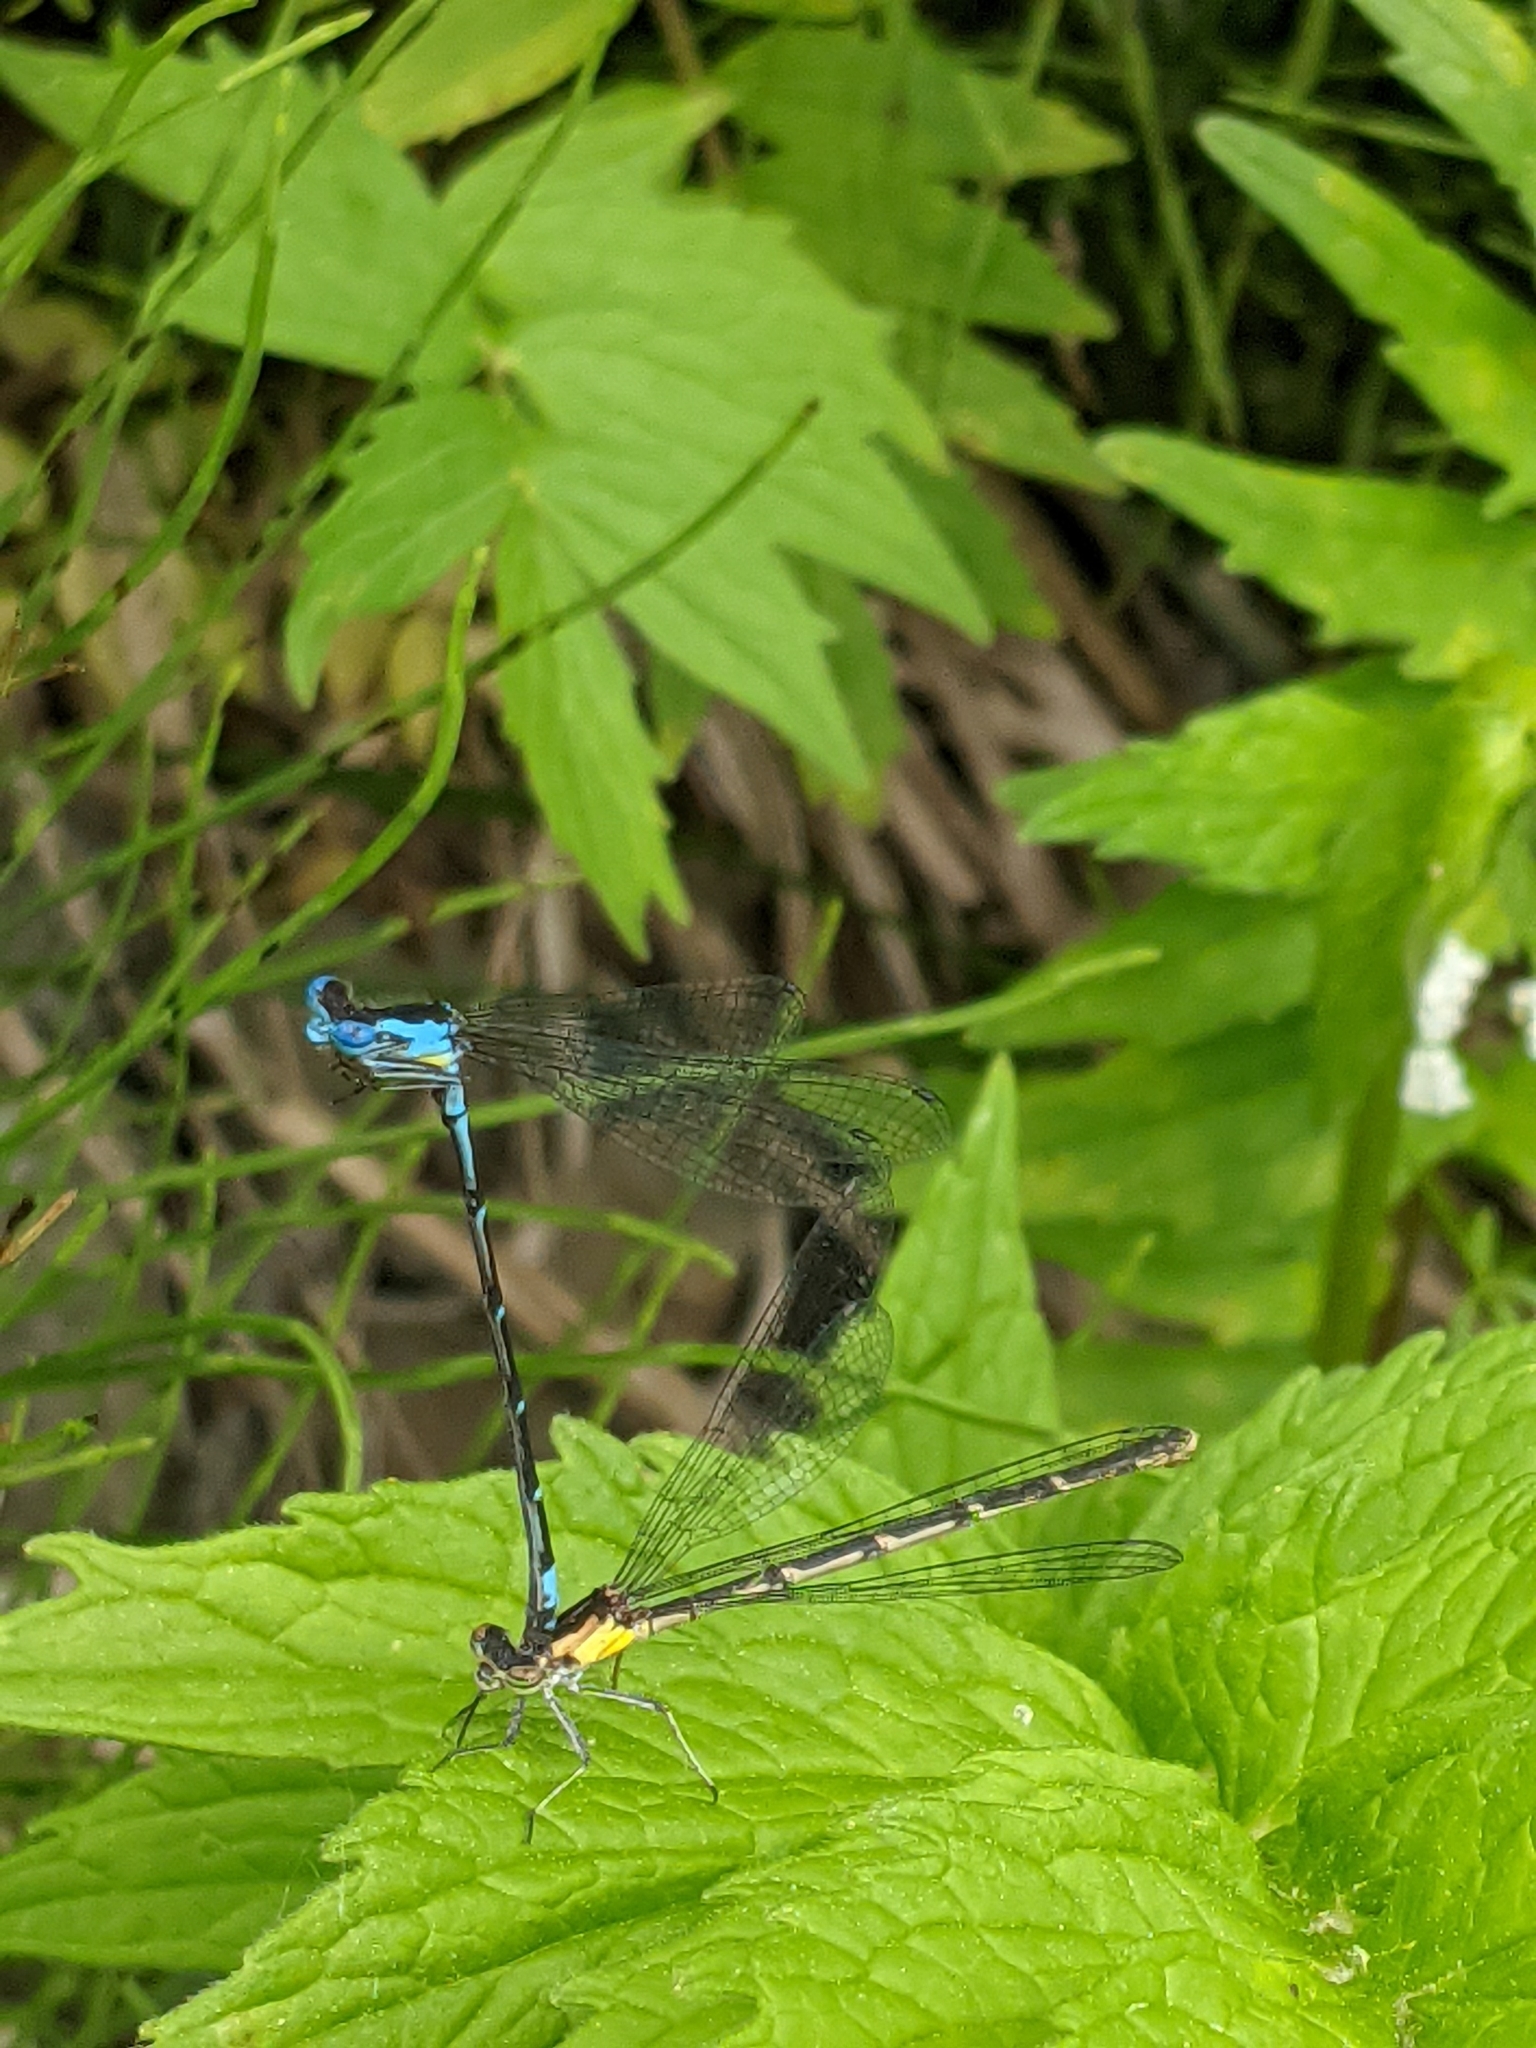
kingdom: Animalia
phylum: Arthropoda
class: Insecta
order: Odonata
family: Coenagrionidae
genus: Chromagrion
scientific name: Chromagrion conditum
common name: Aurora damsel
